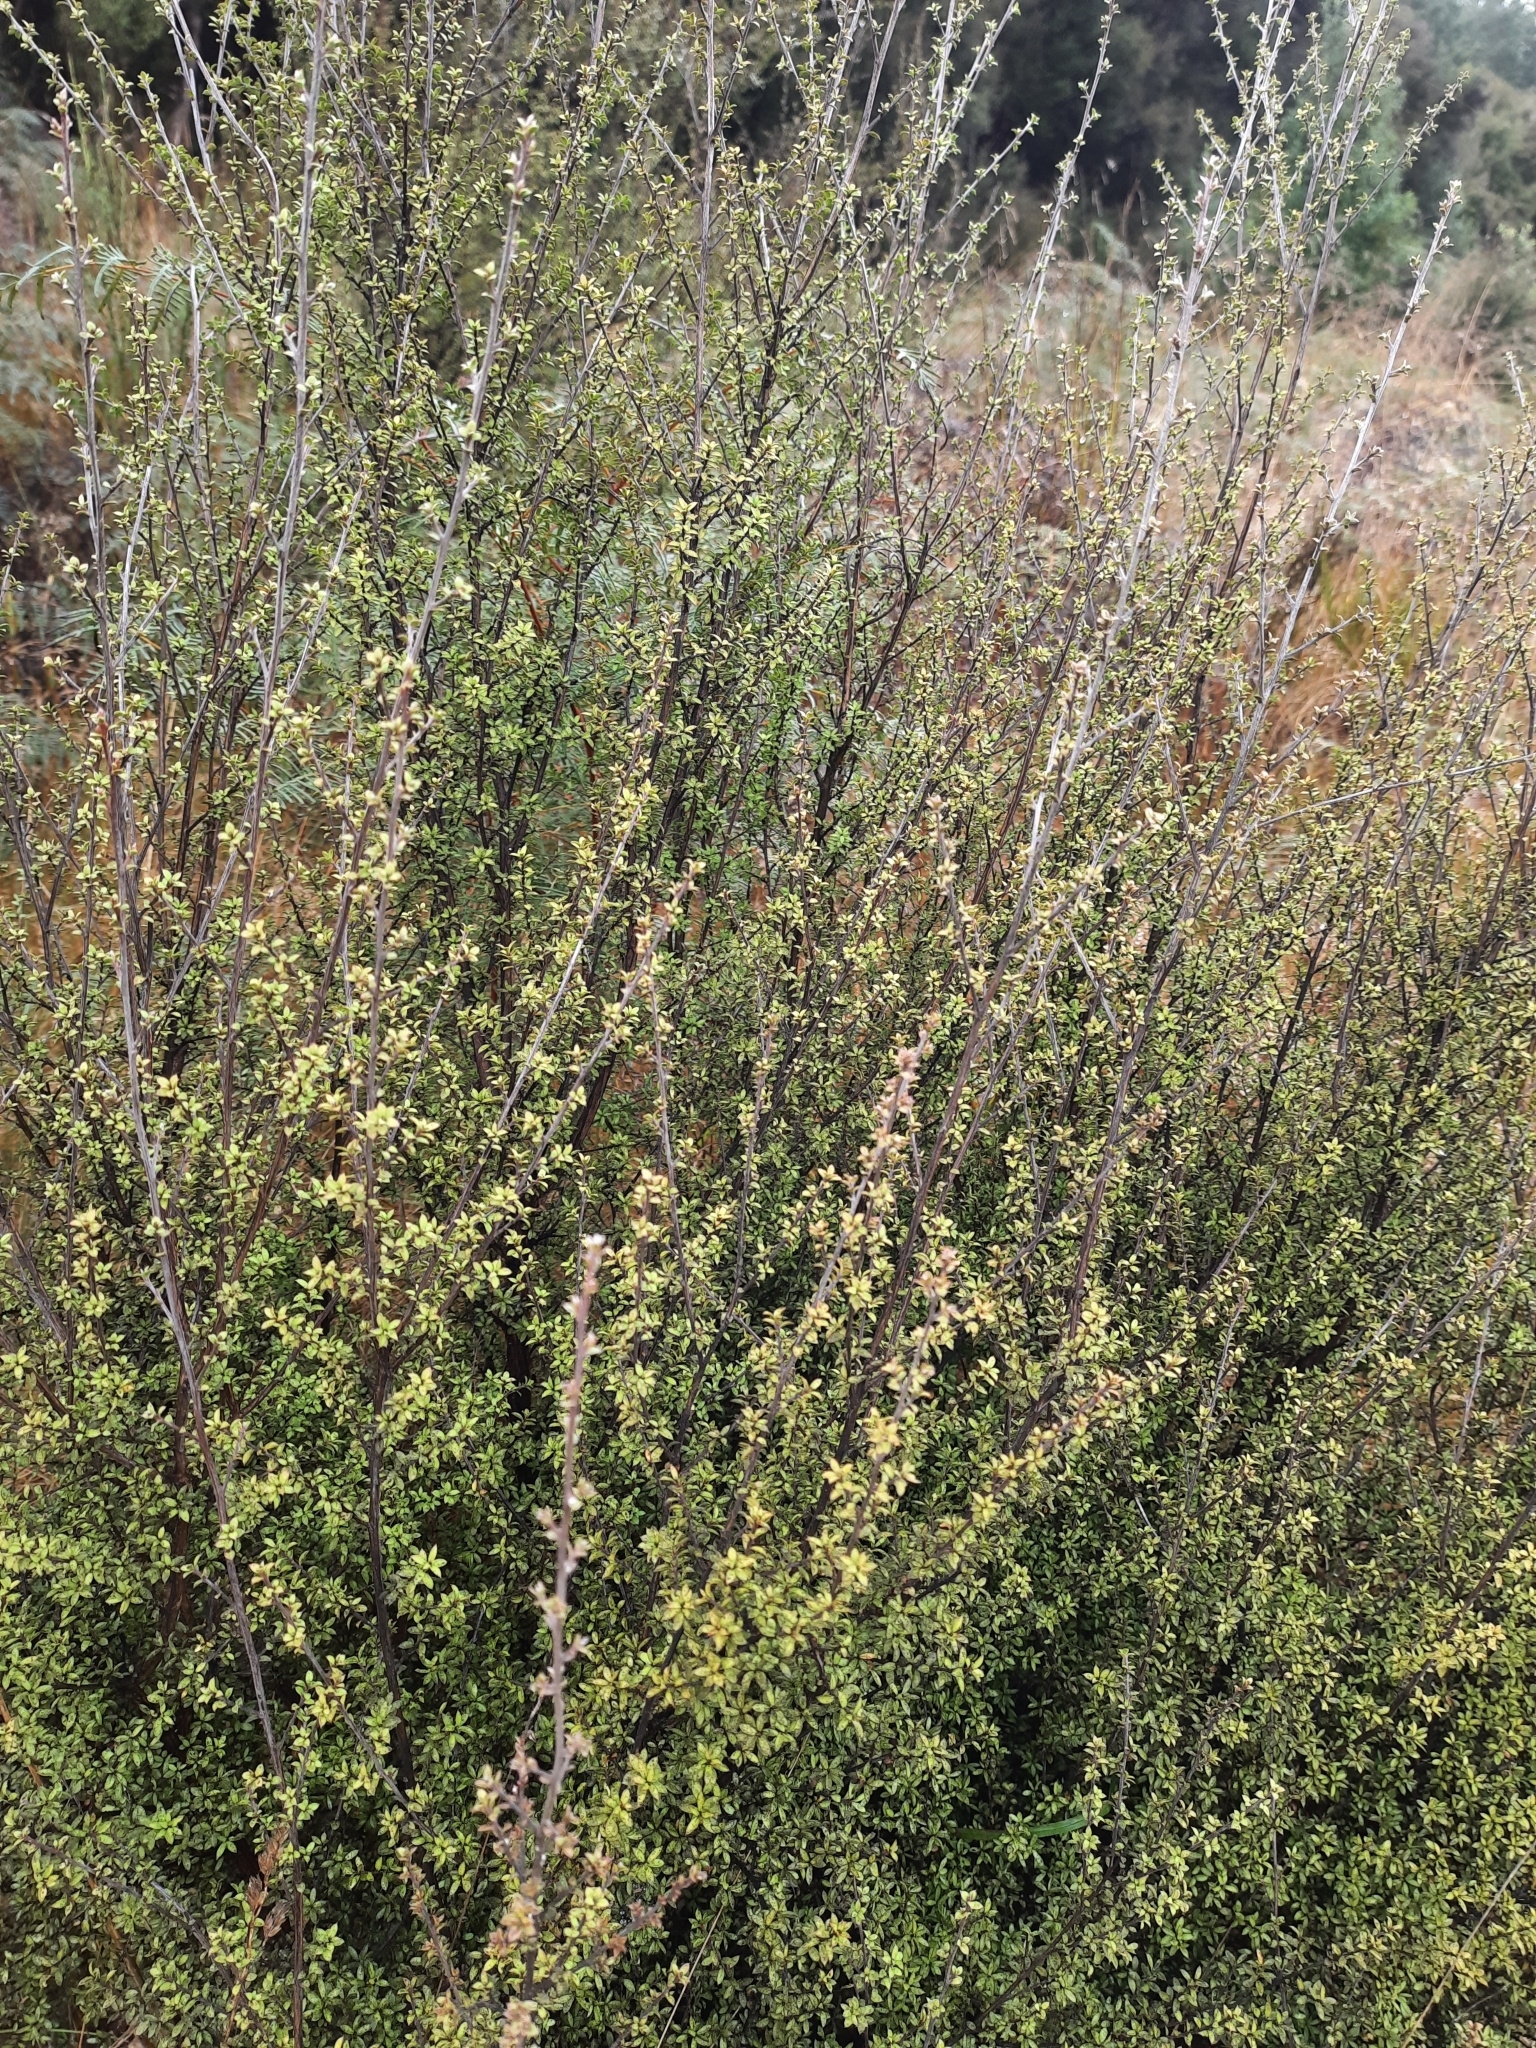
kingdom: Plantae
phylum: Tracheophyta
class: Magnoliopsida
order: Myrtales
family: Myrtaceae
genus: Leptospermum
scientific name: Leptospermum scoparium
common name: Broom tea-tree
